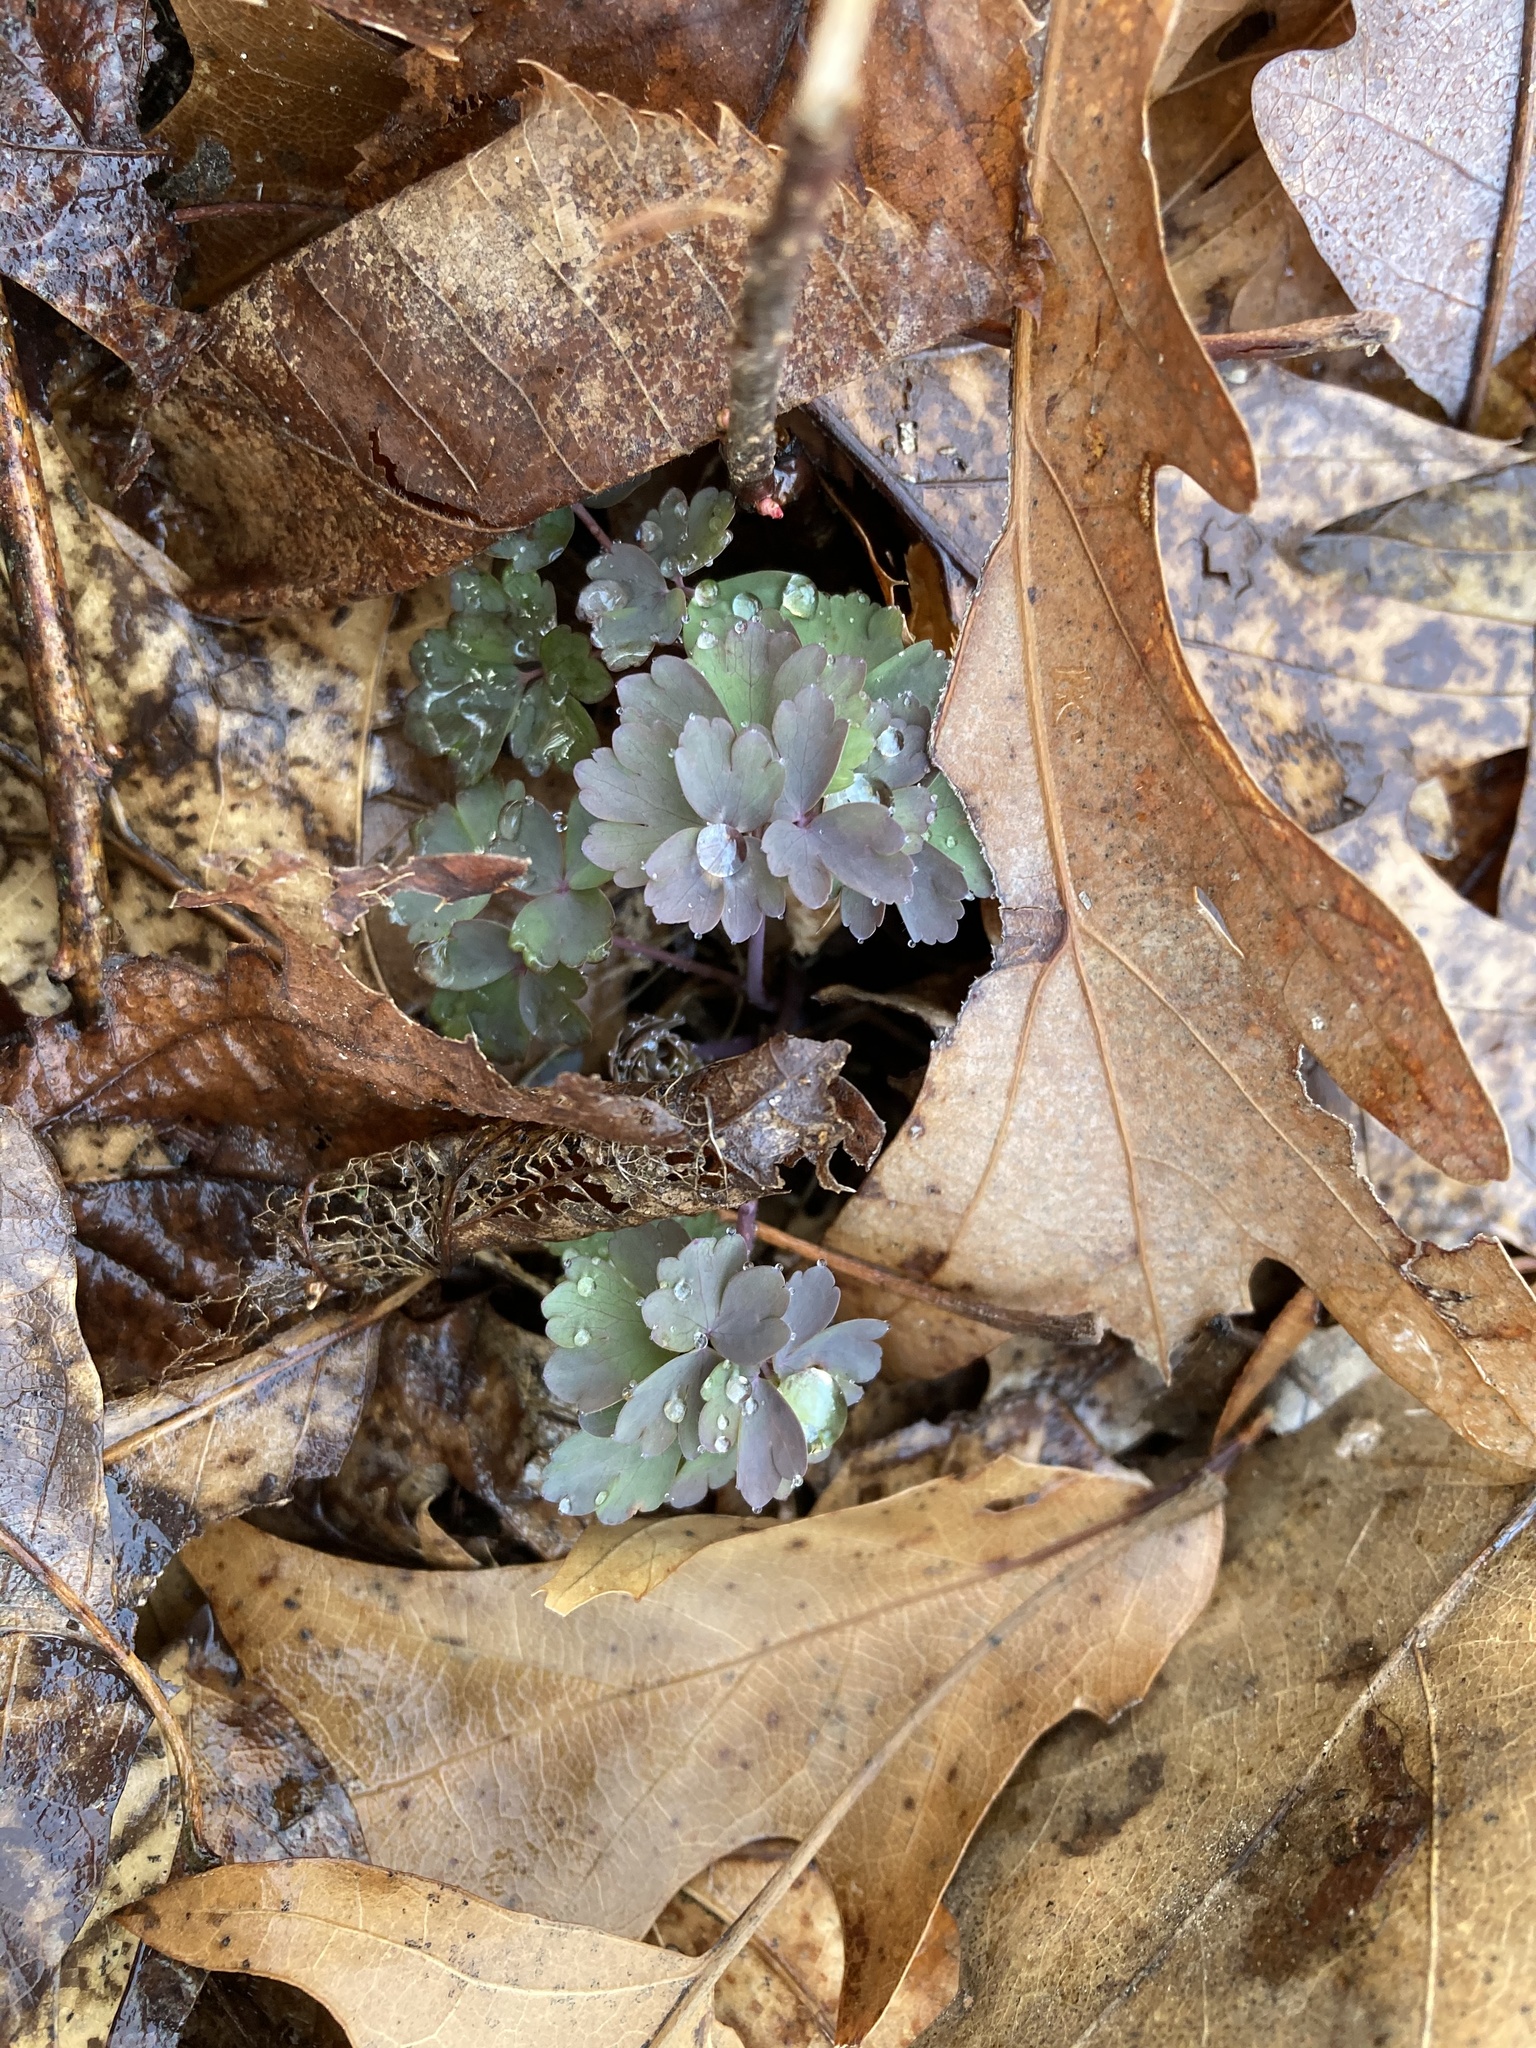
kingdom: Plantae
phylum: Tracheophyta
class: Magnoliopsida
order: Ranunculales
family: Ranunculaceae
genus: Thalictrum
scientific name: Thalictrum dioicum
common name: Early meadow-rue
